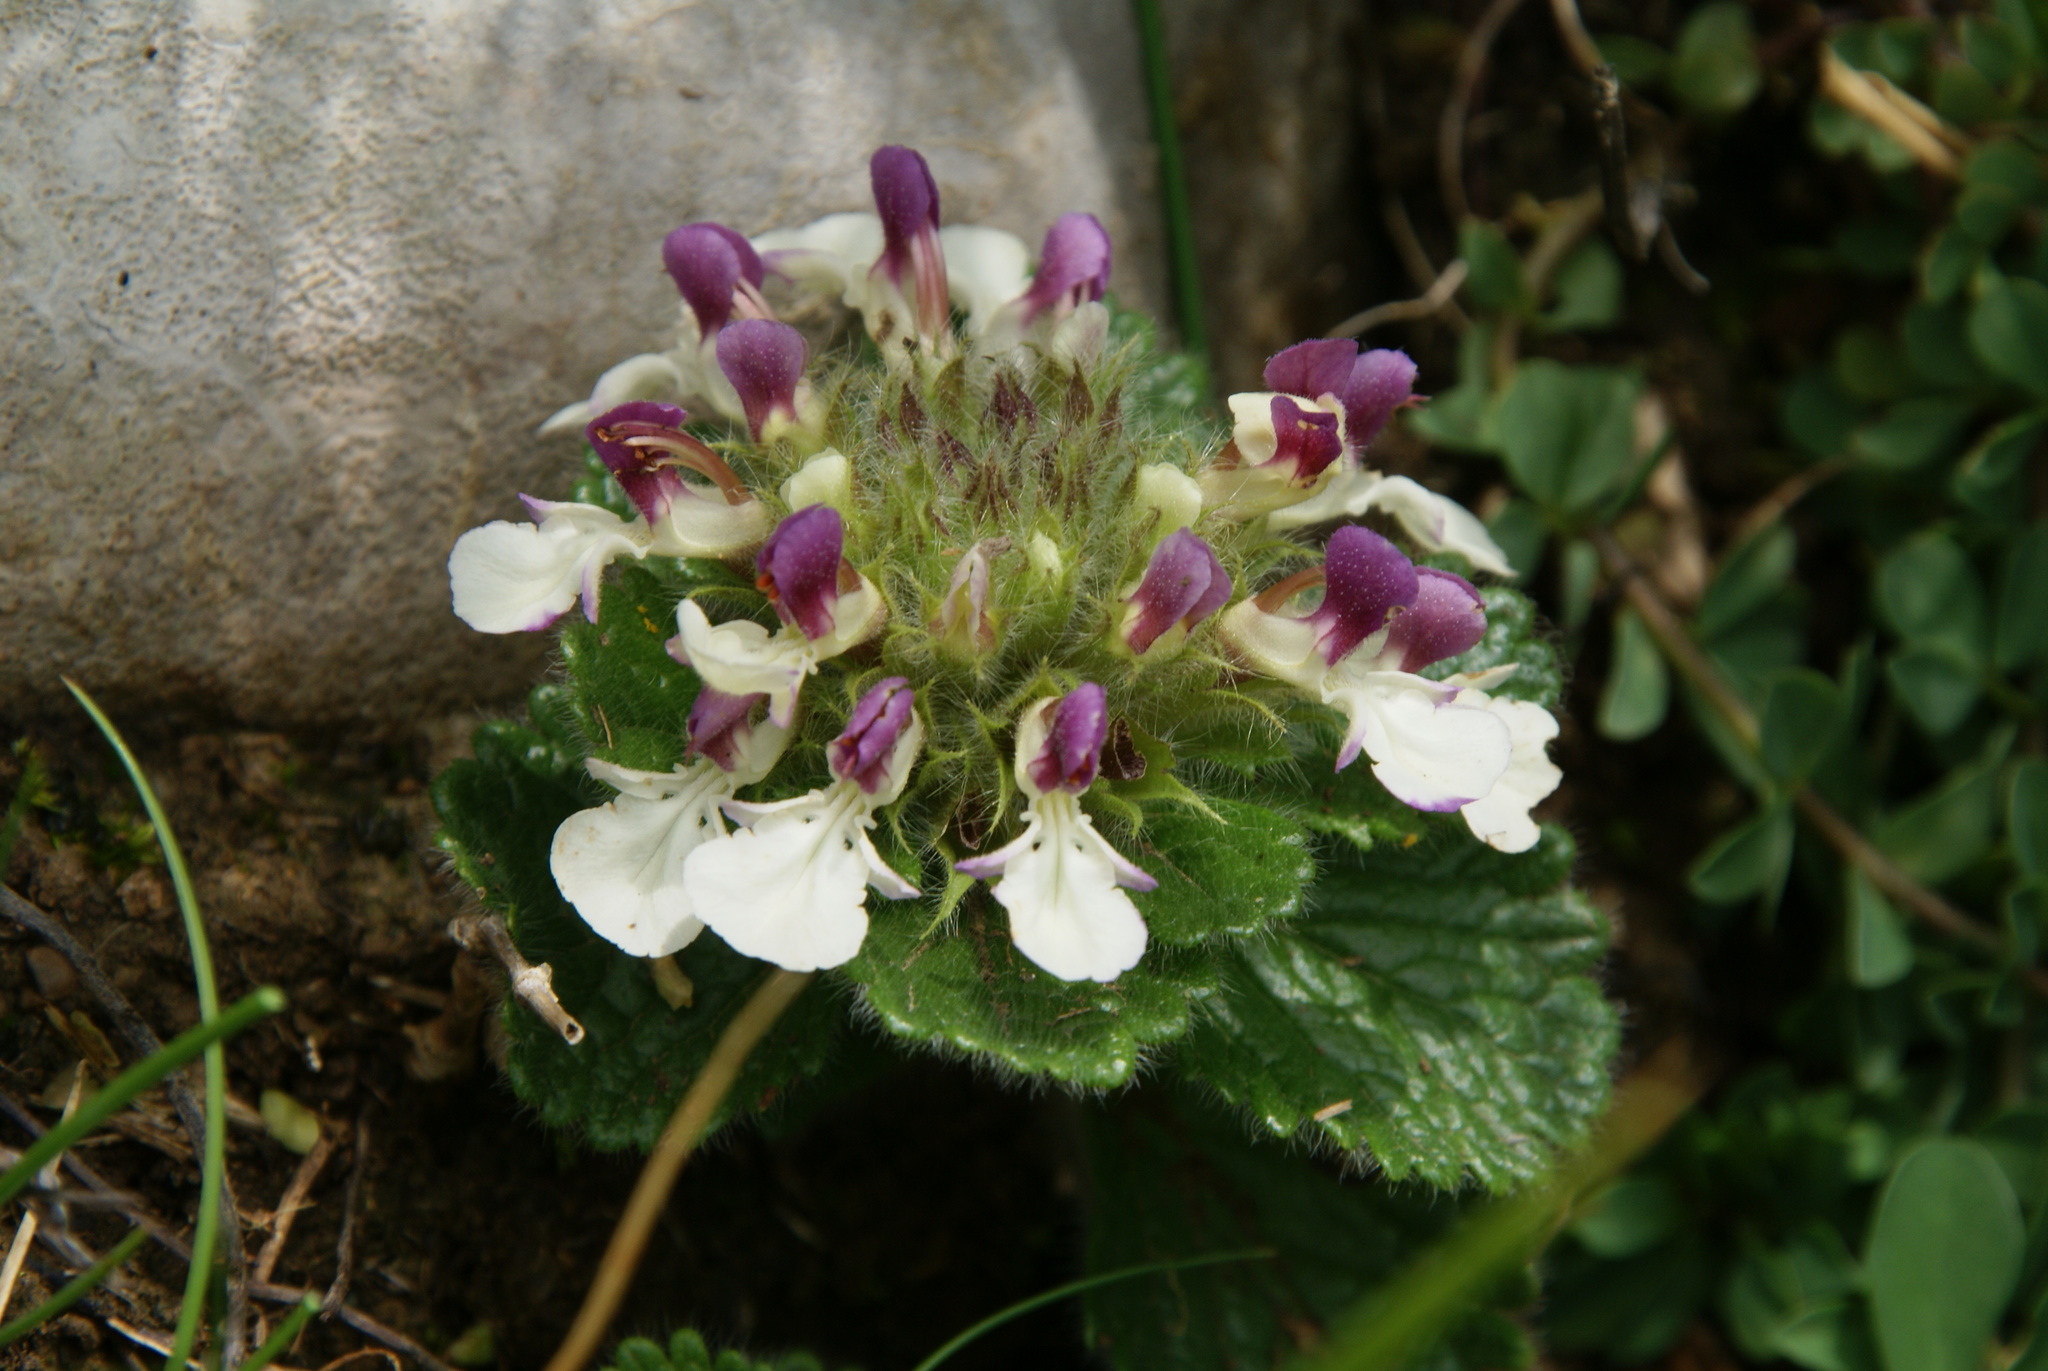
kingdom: Plantae
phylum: Tracheophyta
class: Magnoliopsida
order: Lamiales
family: Lamiaceae
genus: Teucrium
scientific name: Teucrium pyrenaicum
